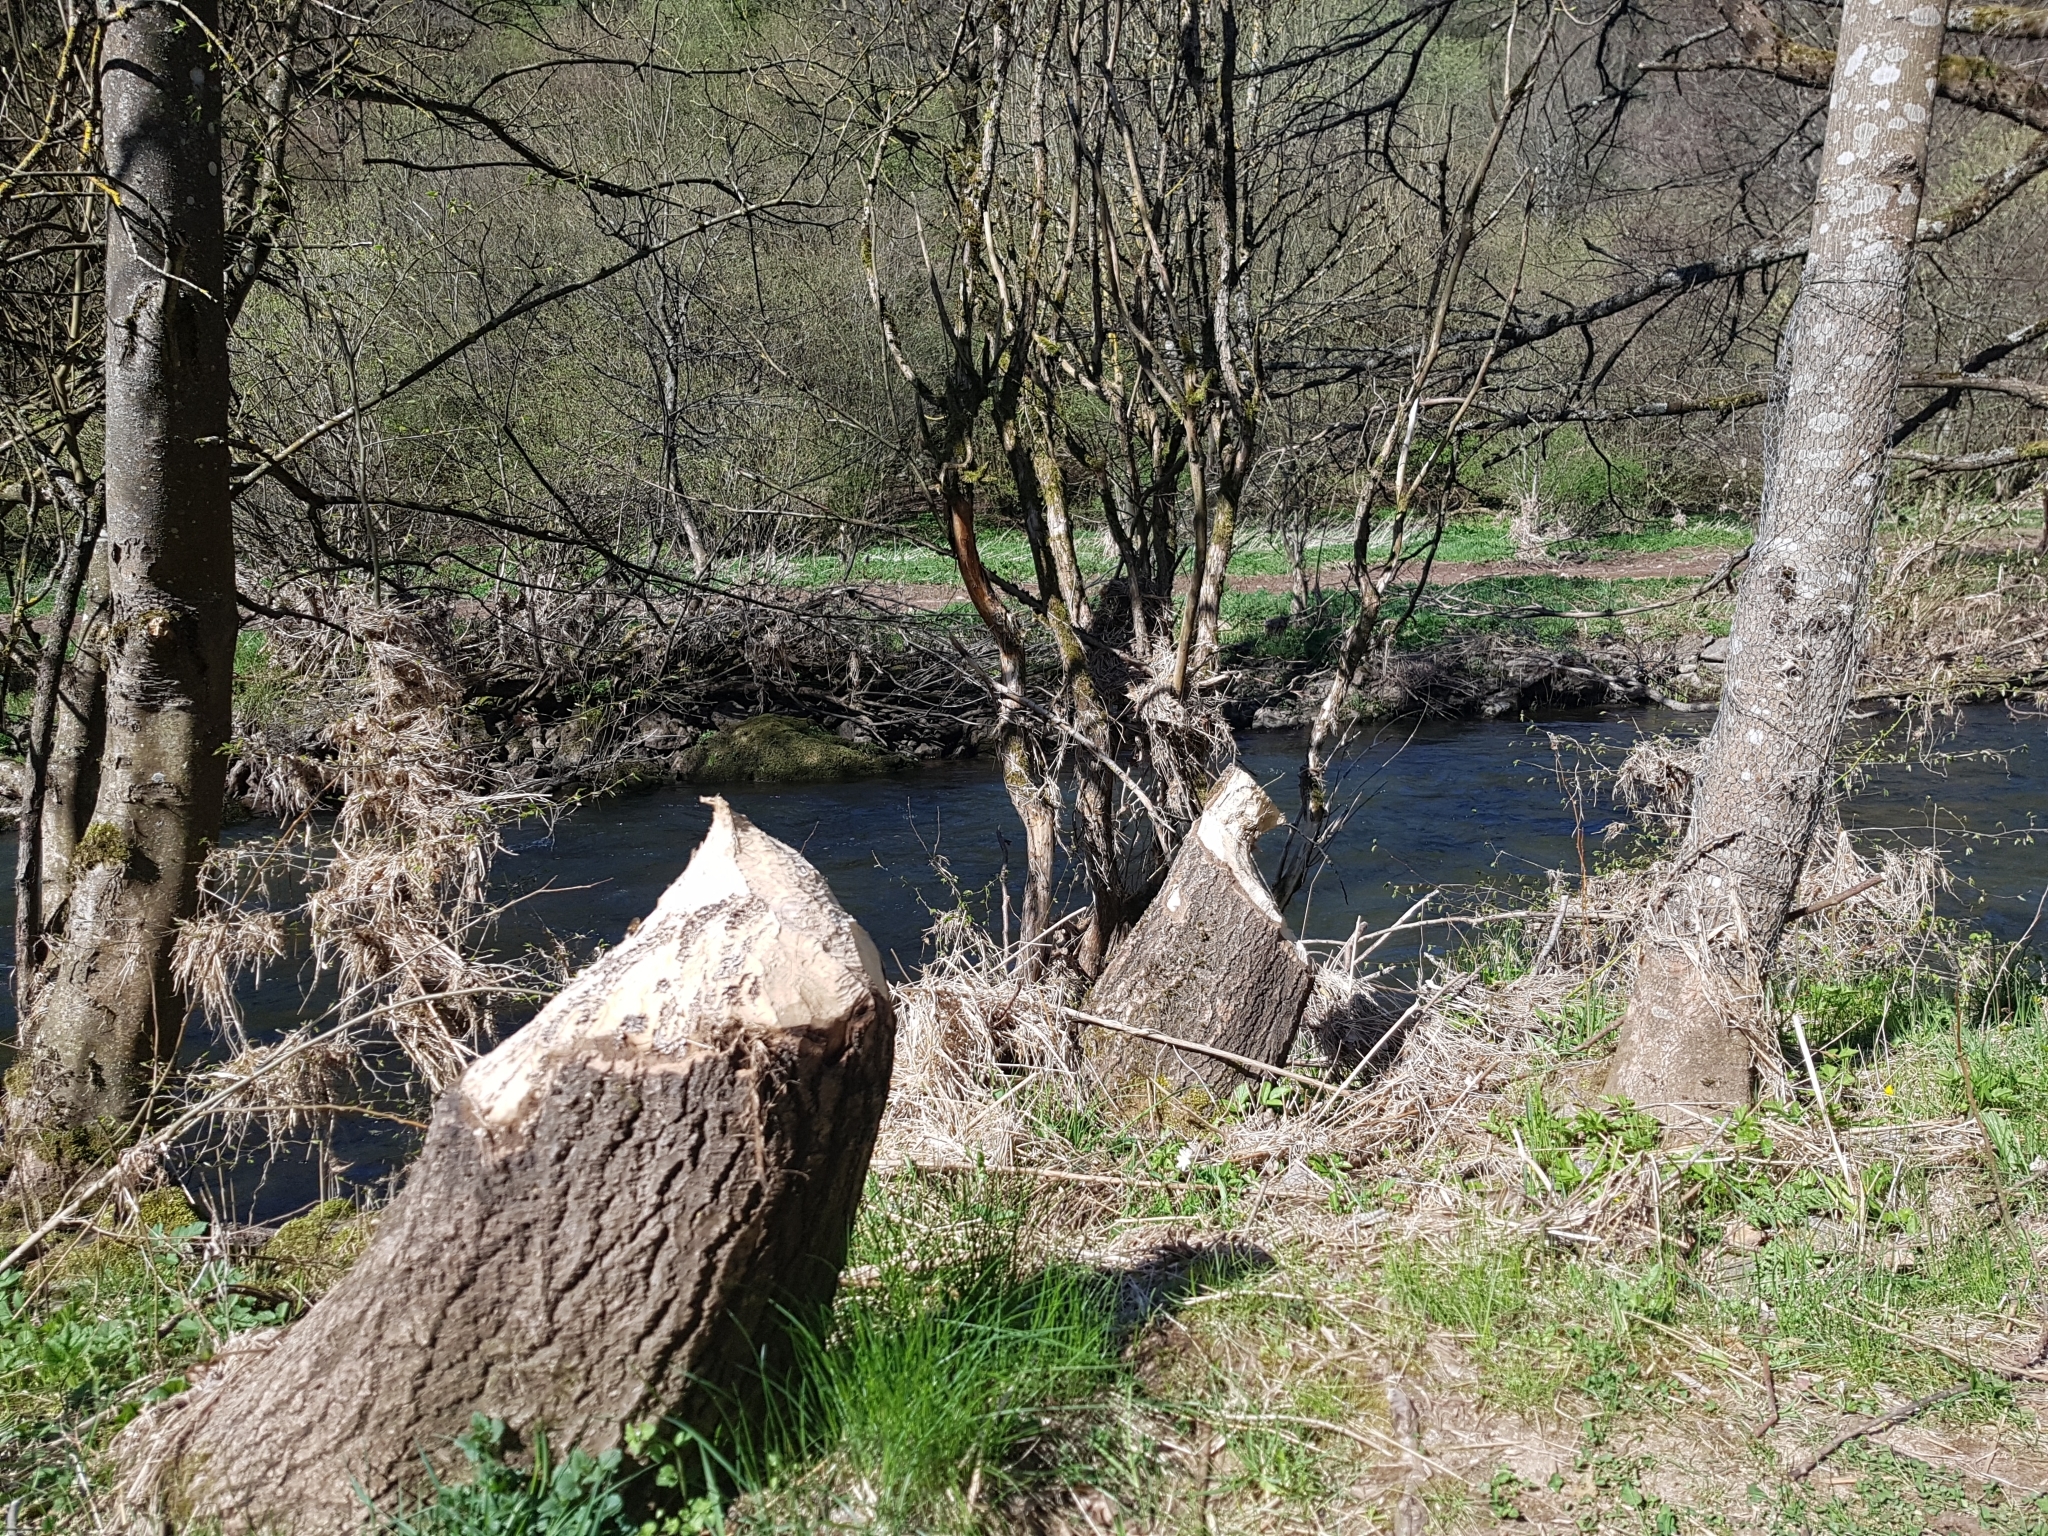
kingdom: Animalia
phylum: Chordata
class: Mammalia
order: Rodentia
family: Castoridae
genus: Castor
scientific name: Castor fiber
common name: Eurasian beaver
